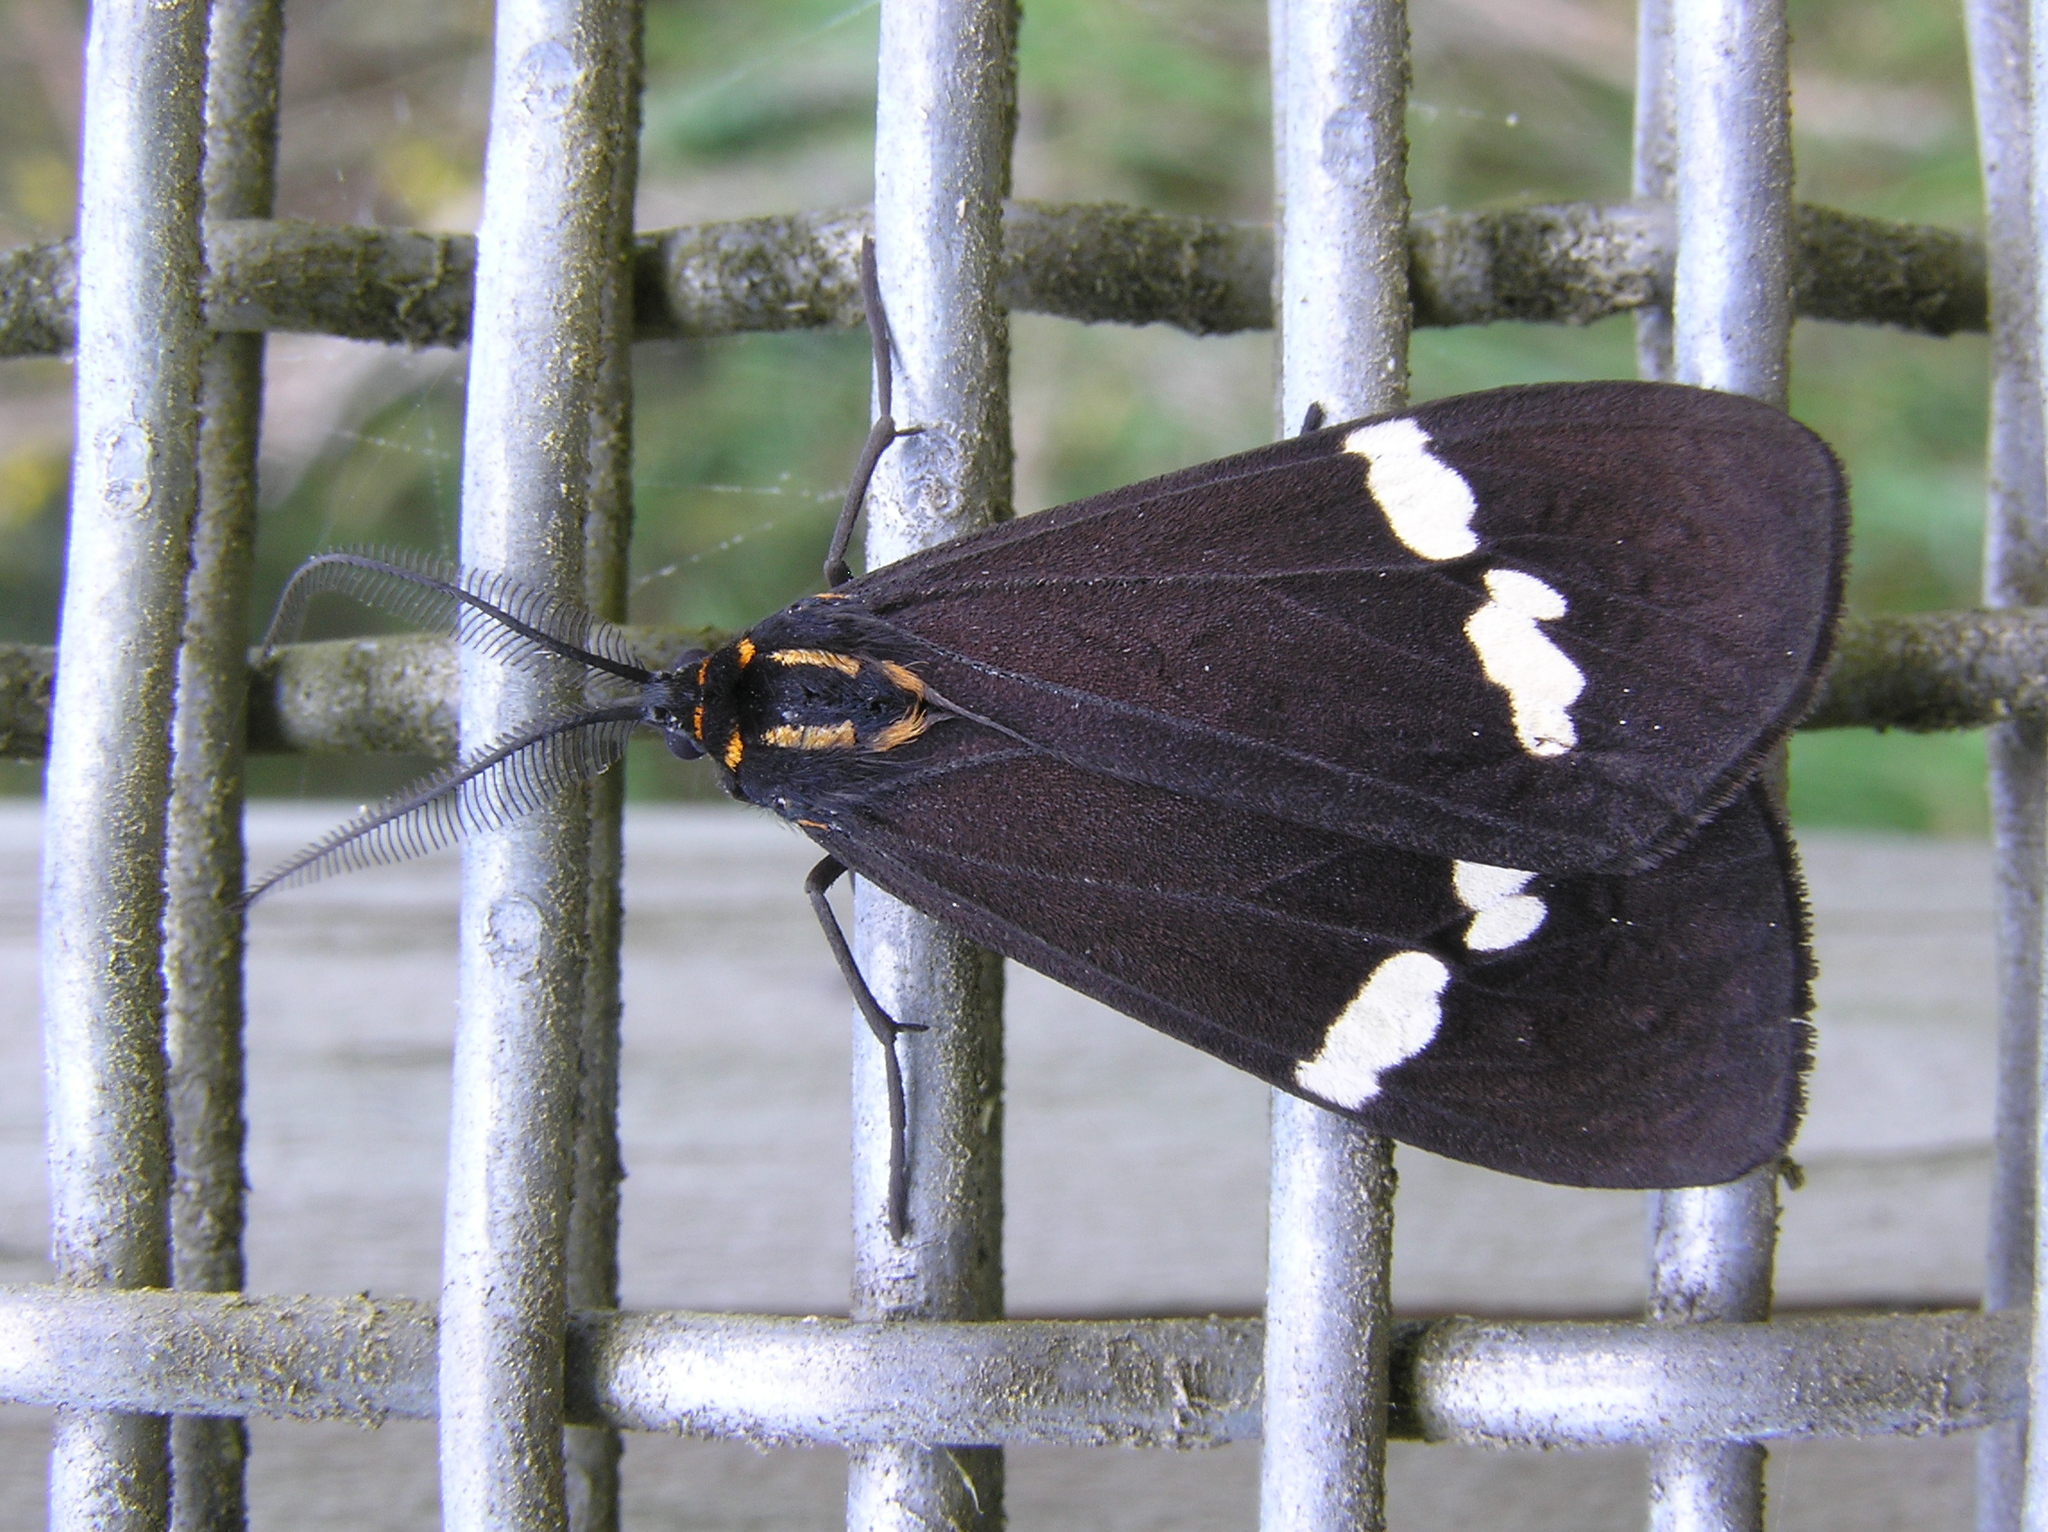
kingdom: Animalia
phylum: Arthropoda
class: Insecta
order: Lepidoptera
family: Erebidae
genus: Nyctemera
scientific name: Nyctemera annulatum
